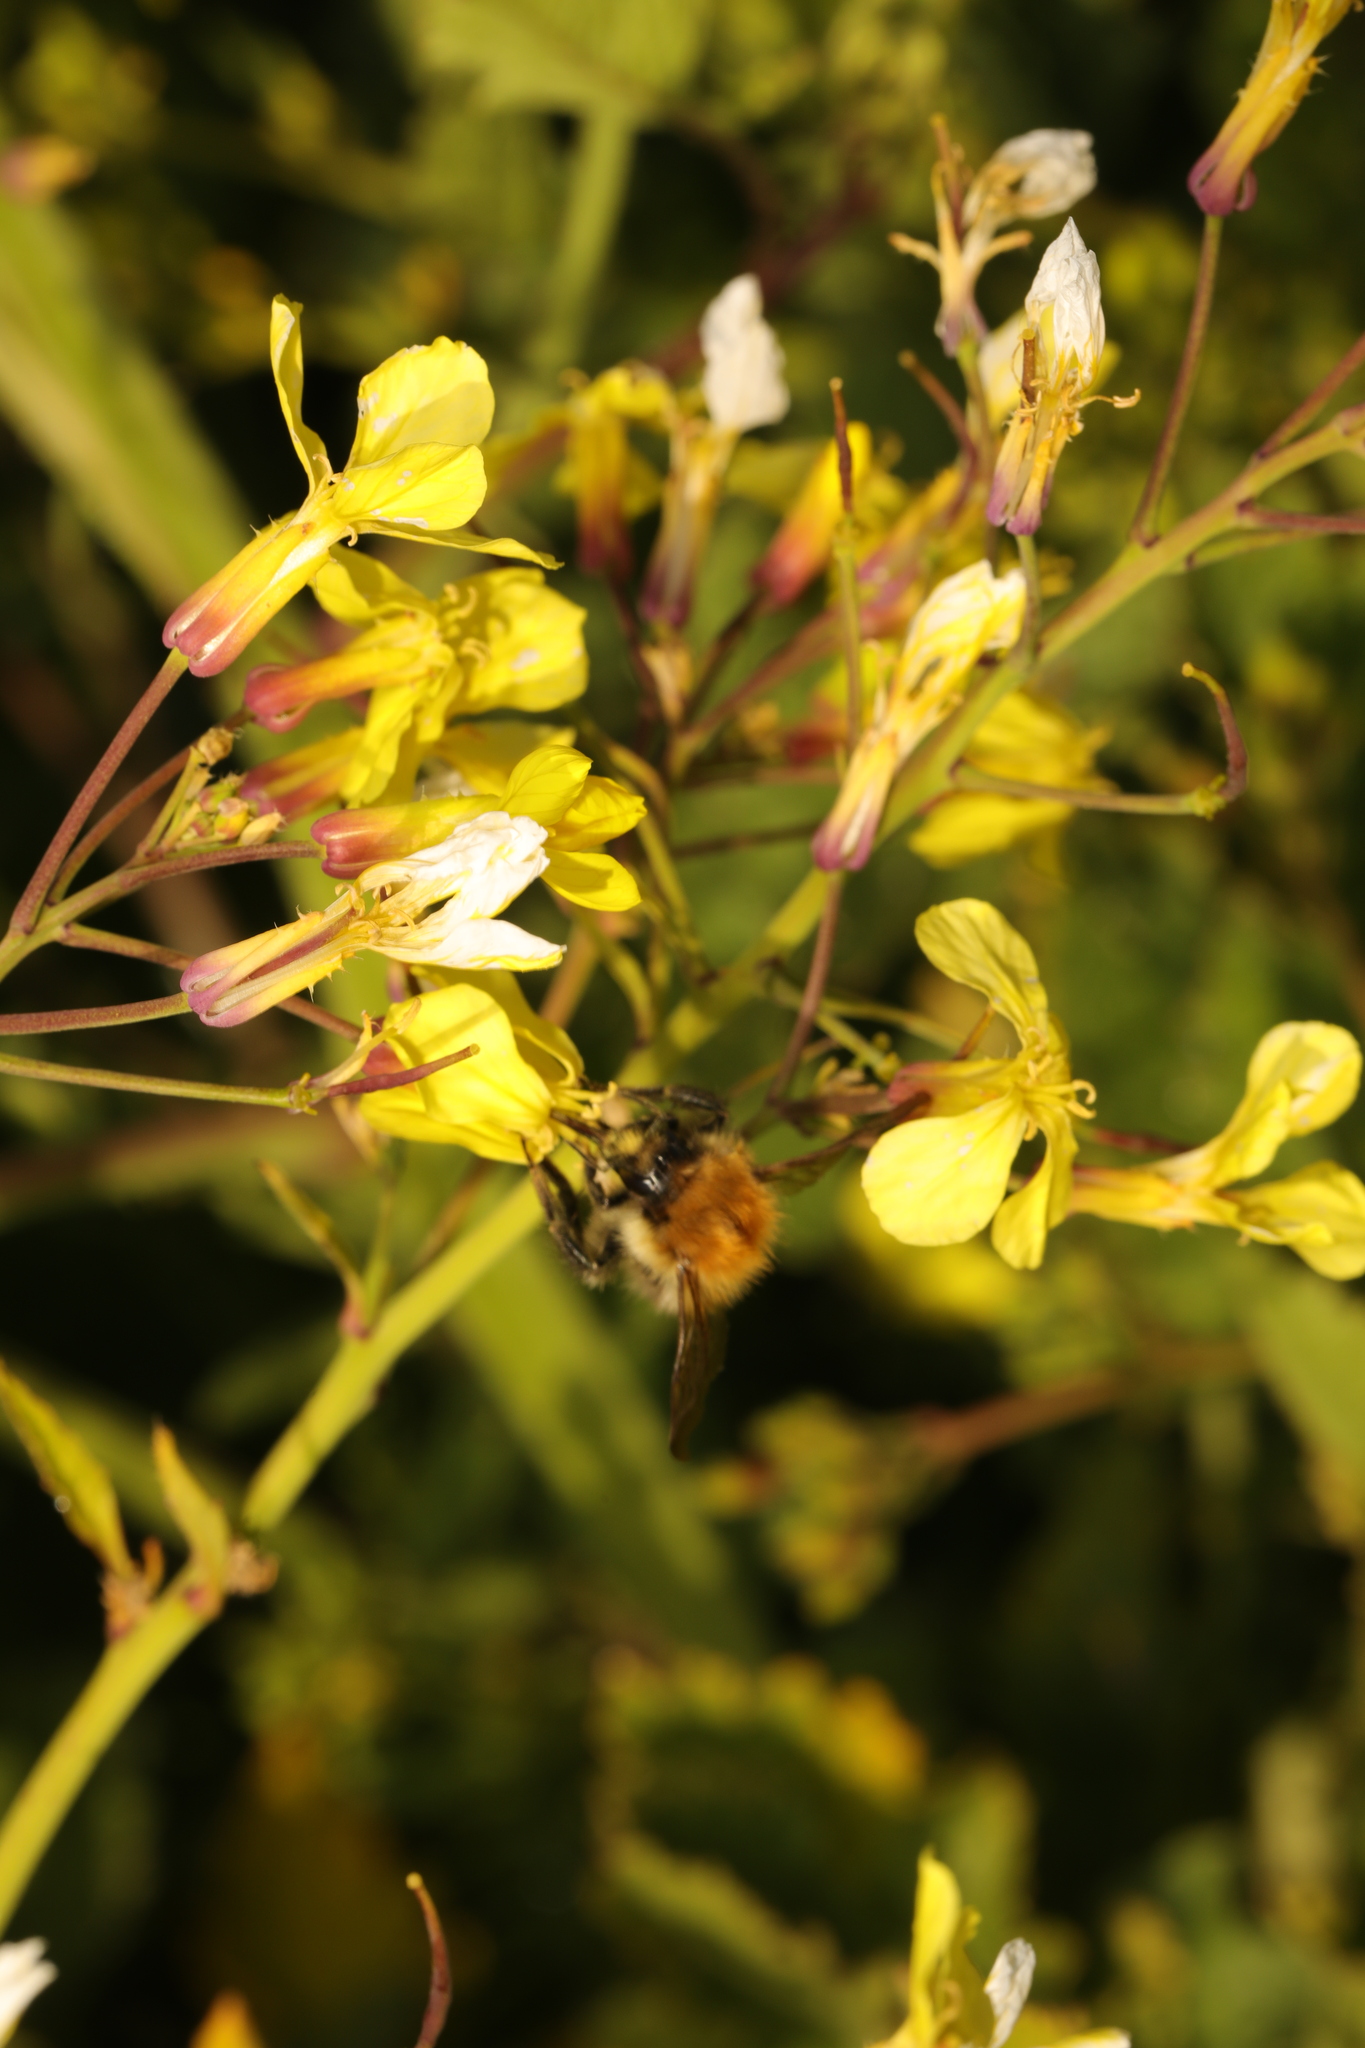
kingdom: Animalia
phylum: Arthropoda
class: Insecta
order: Hymenoptera
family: Apidae
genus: Bombus
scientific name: Bombus pascuorum
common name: Common carder bee
